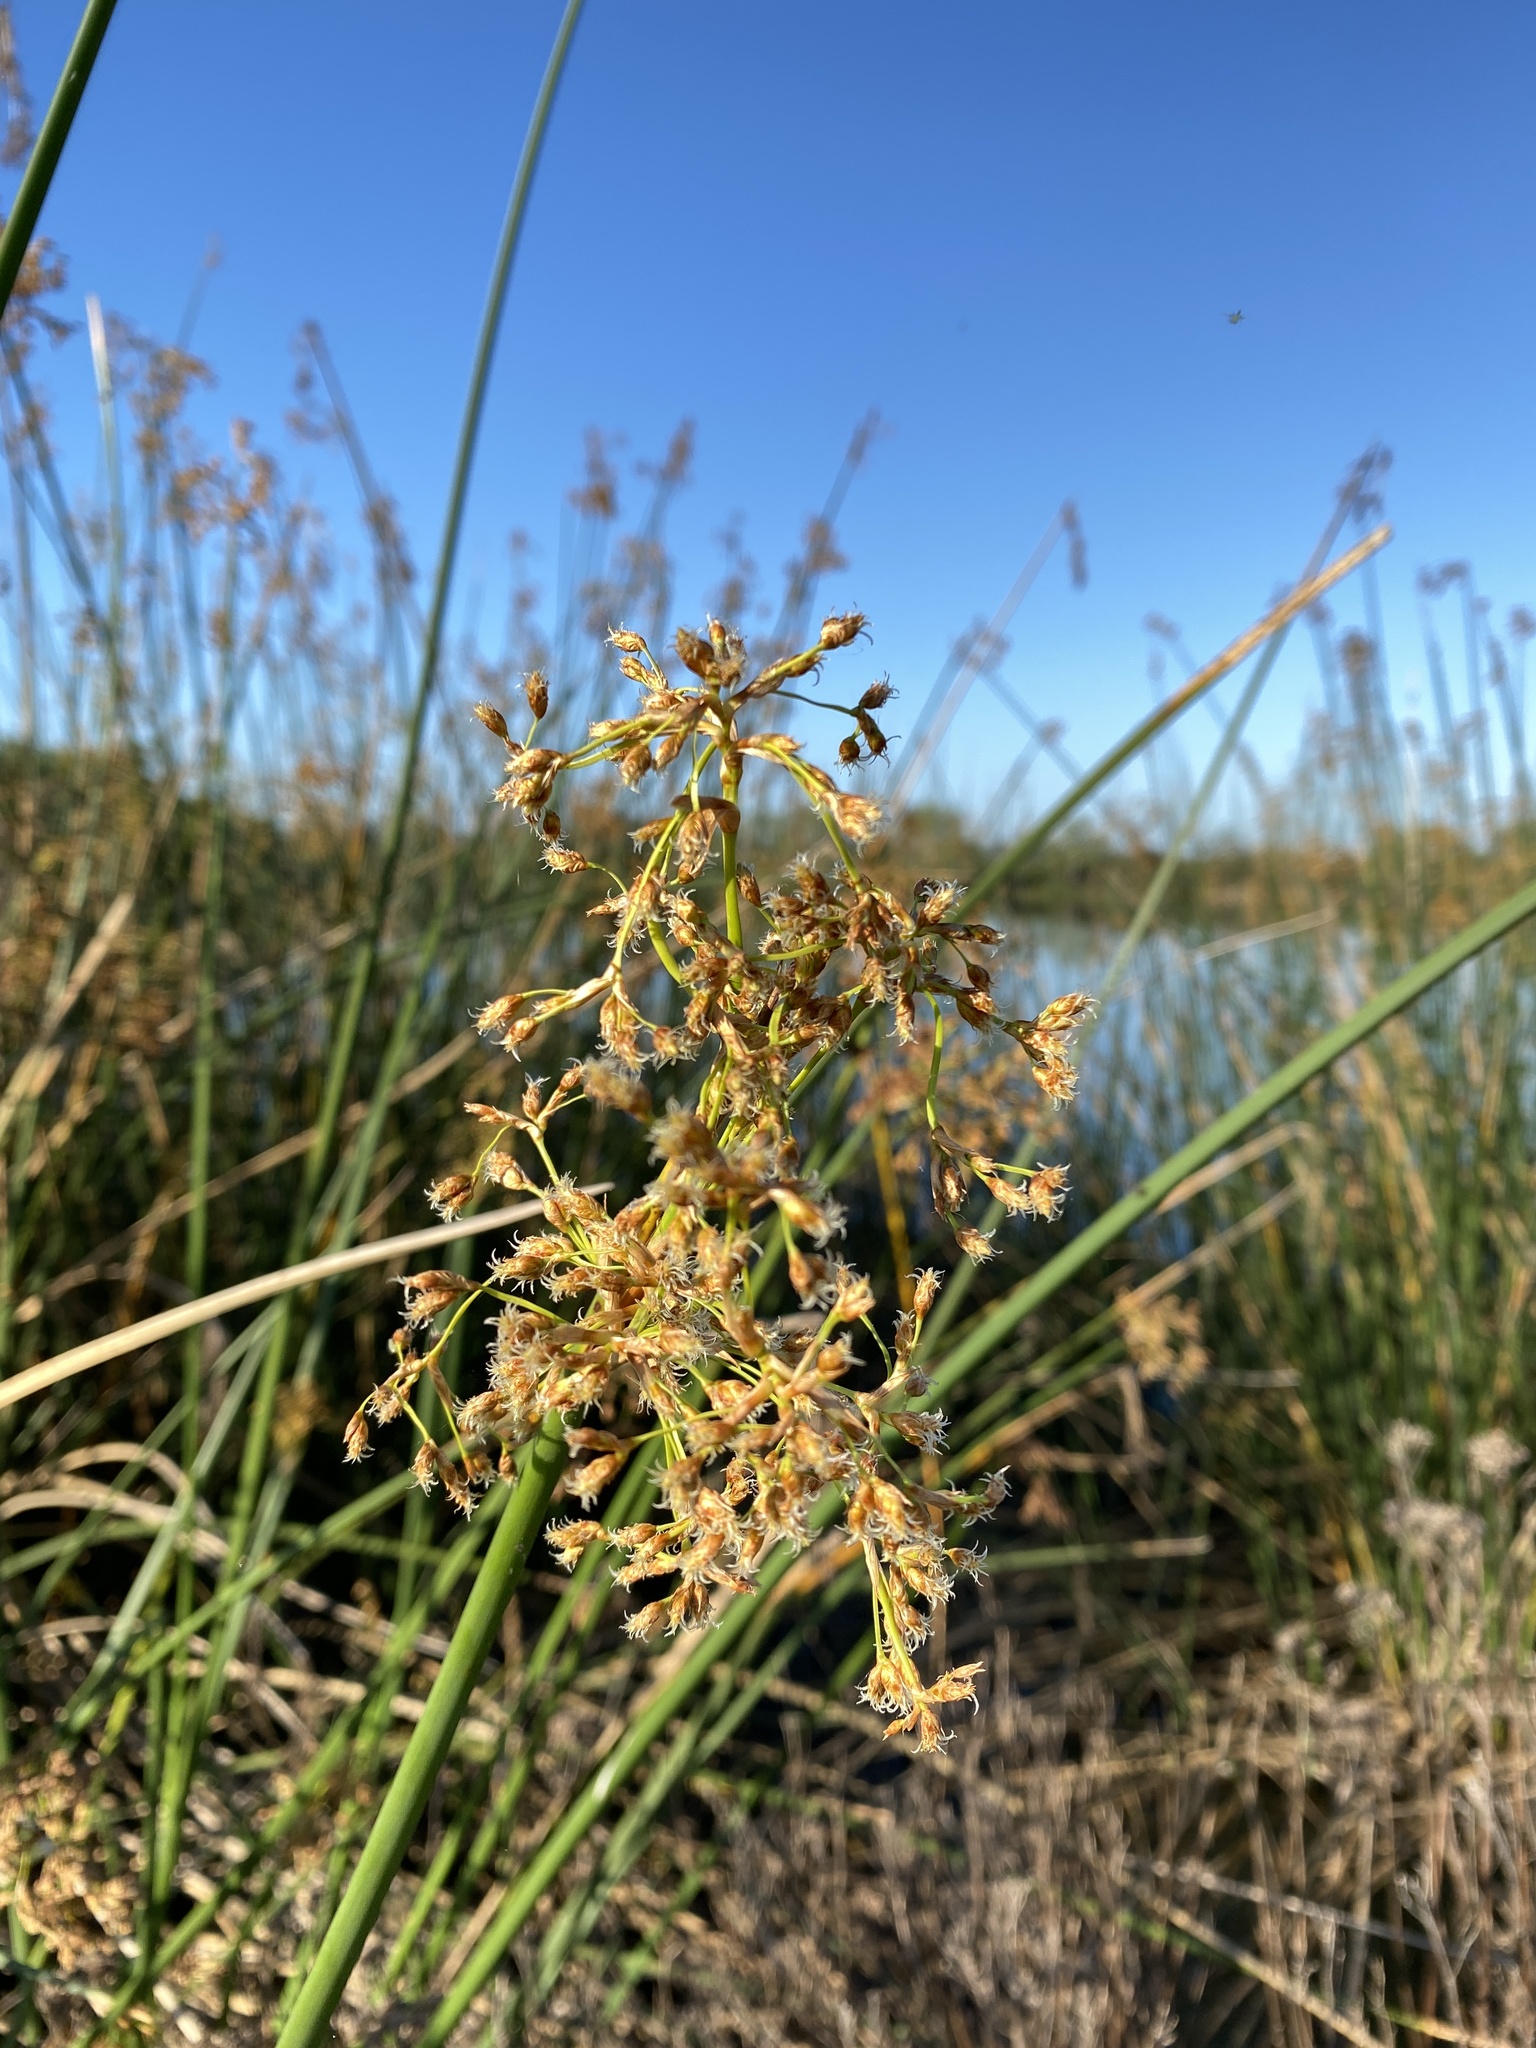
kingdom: Plantae
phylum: Tracheophyta
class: Liliopsida
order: Poales
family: Cyperaceae
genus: Schoenoplectus
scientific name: Schoenoplectus californicus
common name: California bulrush
